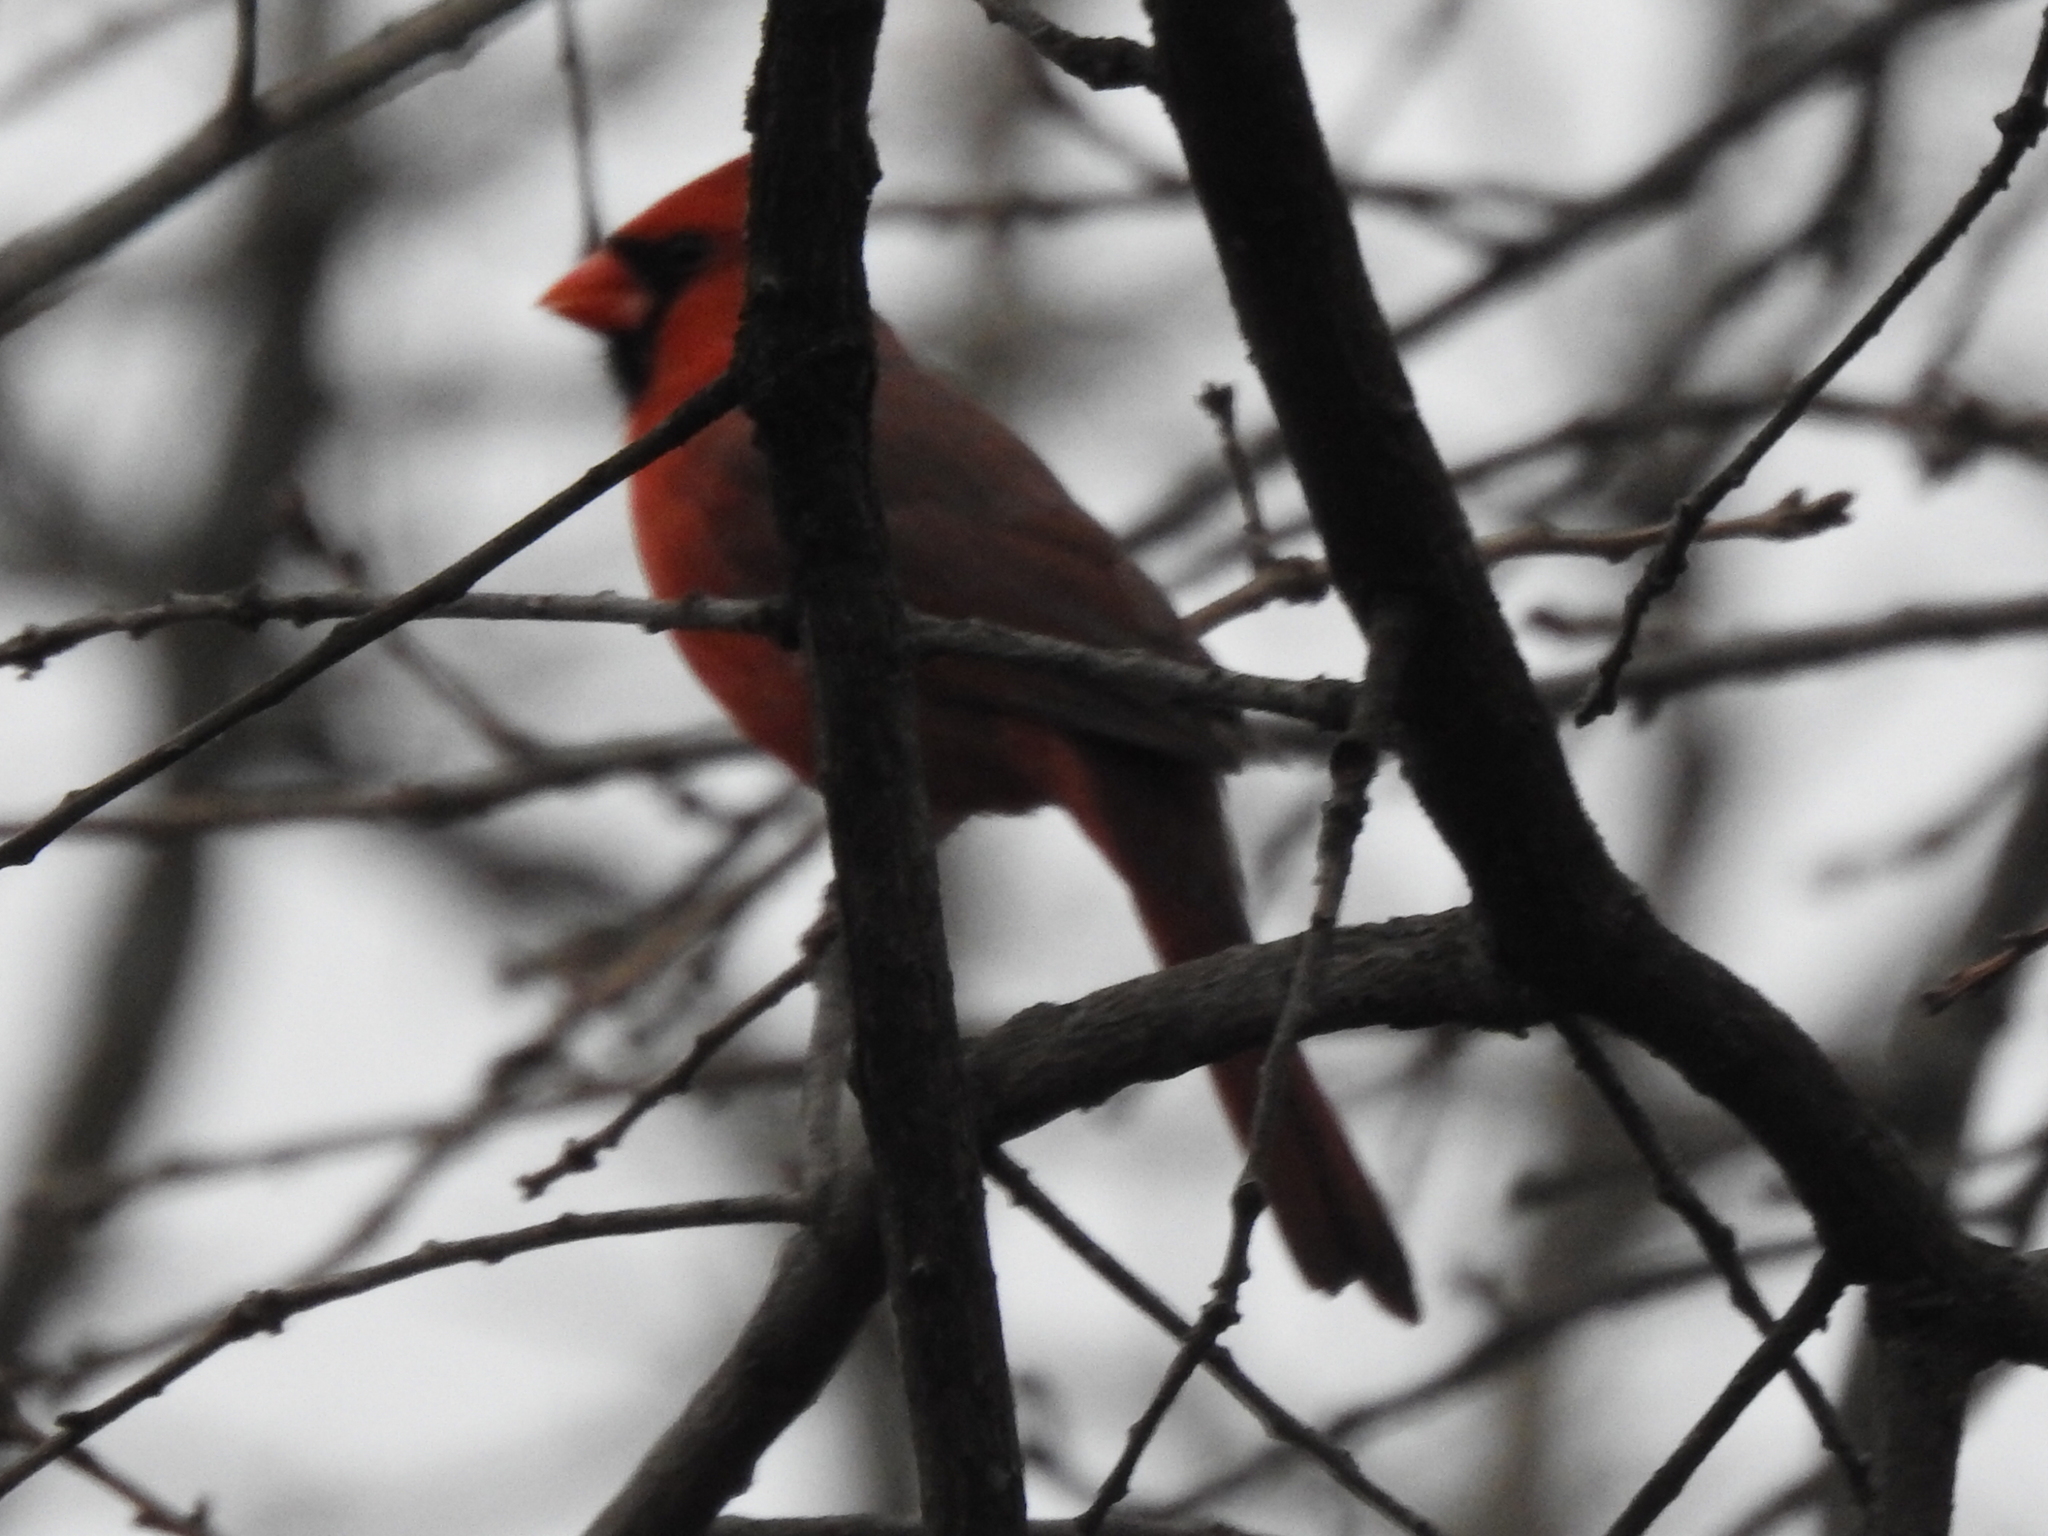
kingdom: Animalia
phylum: Chordata
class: Aves
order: Passeriformes
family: Cardinalidae
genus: Cardinalis
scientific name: Cardinalis cardinalis
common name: Northern cardinal
